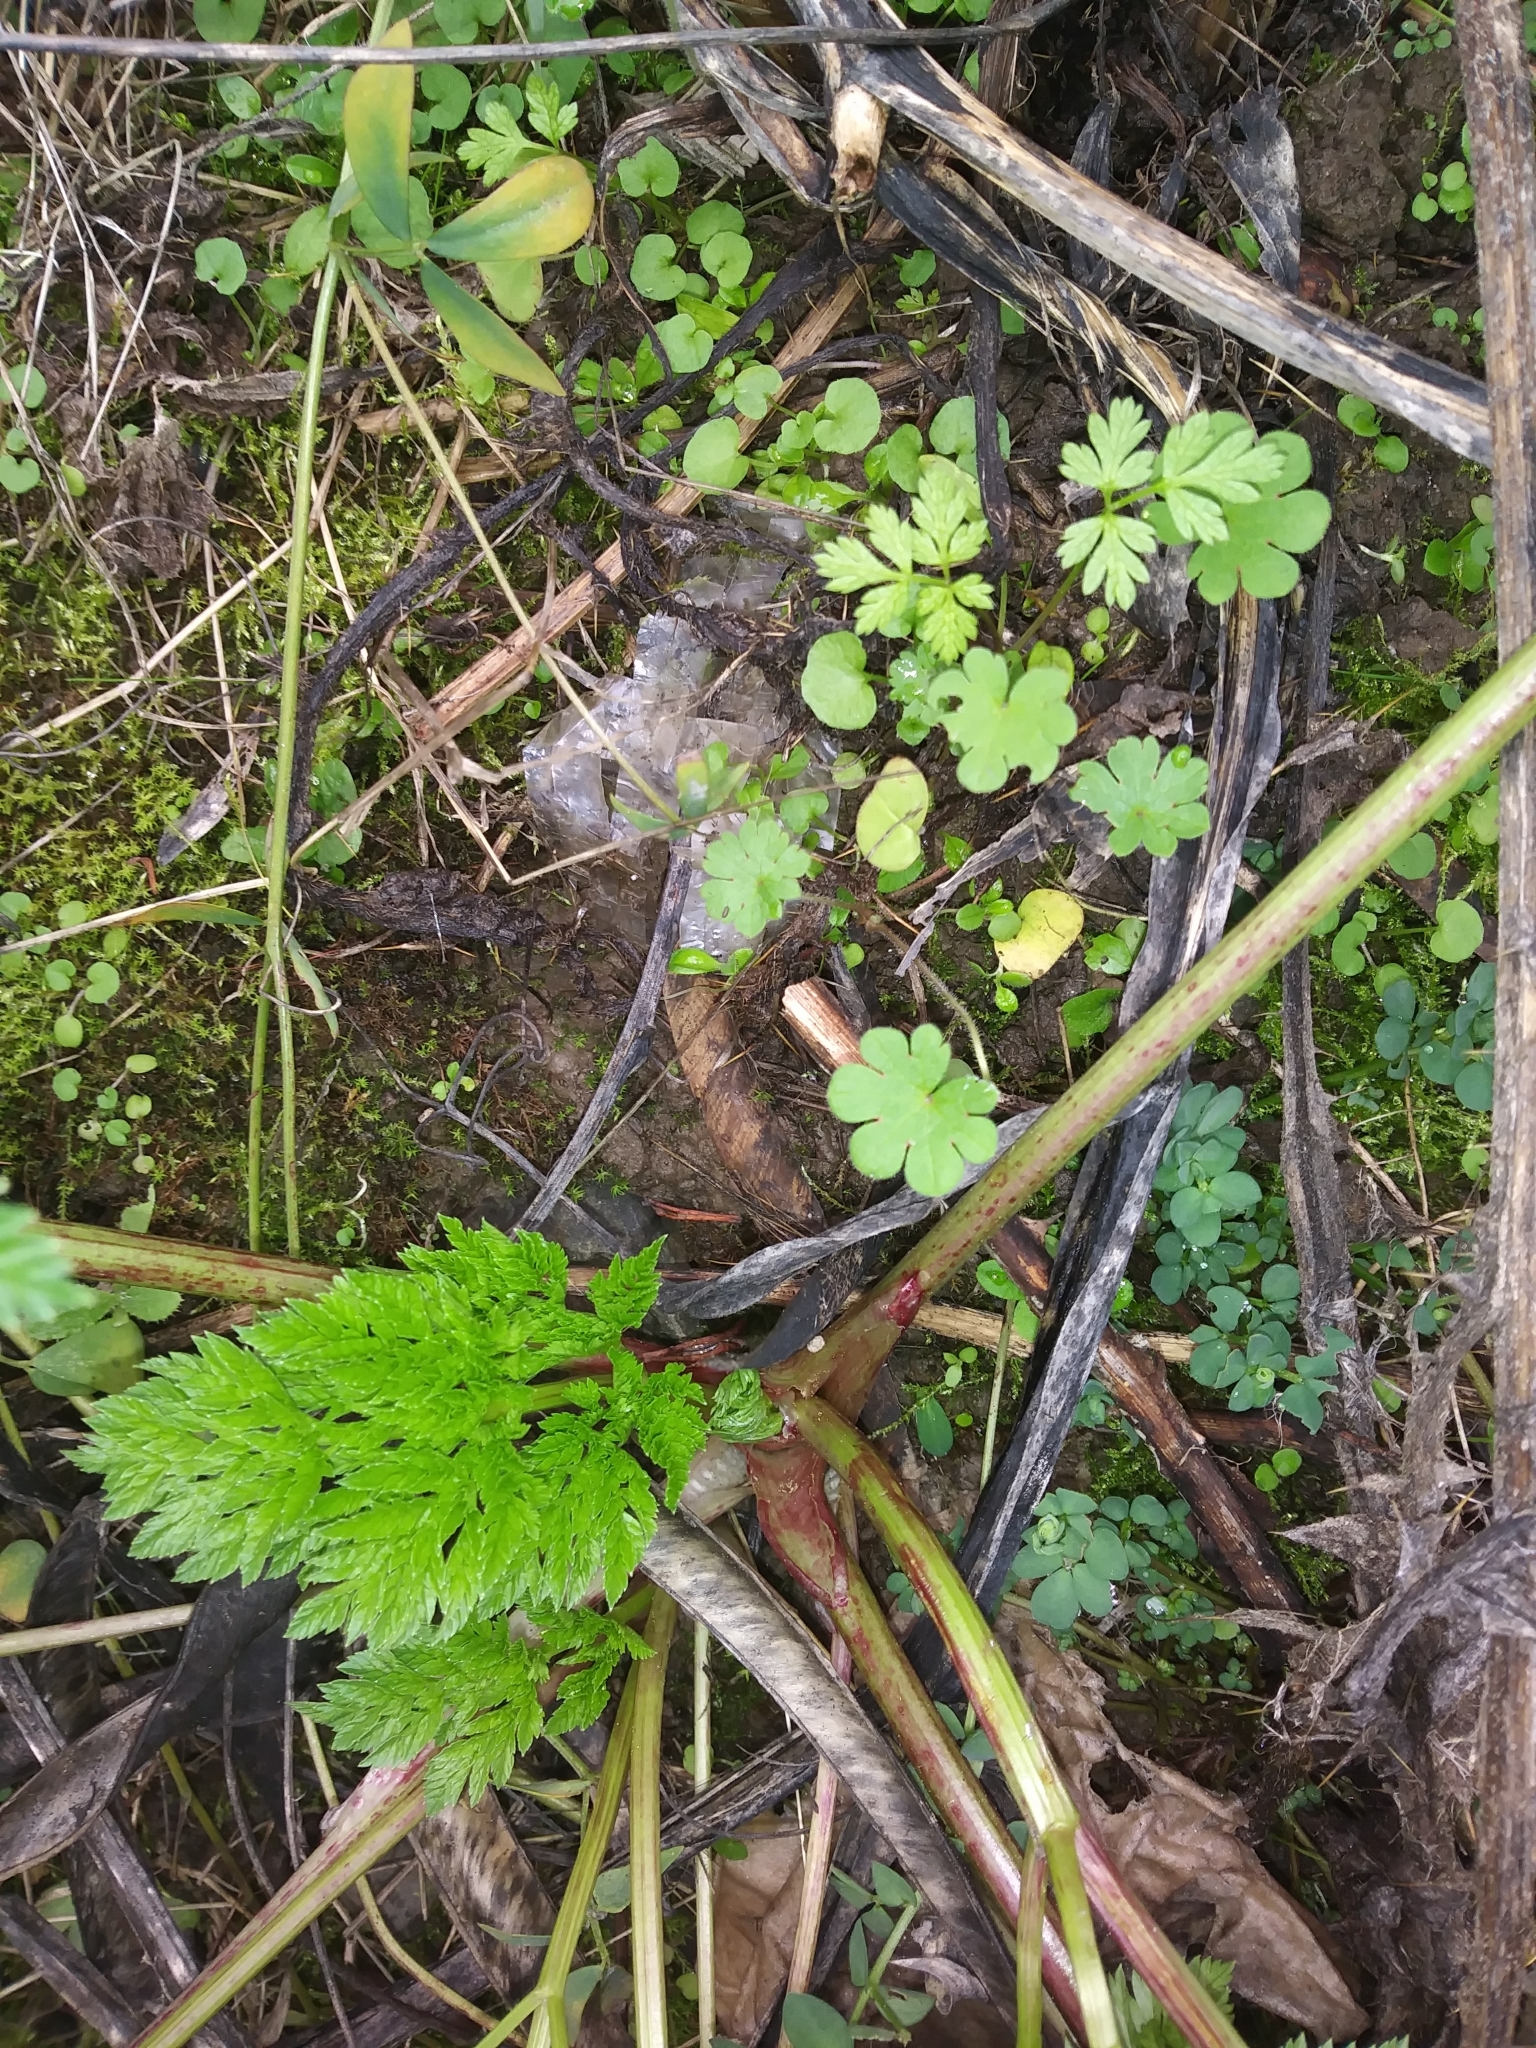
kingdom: Plantae
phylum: Tracheophyta
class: Magnoliopsida
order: Apiales
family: Apiaceae
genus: Conium
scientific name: Conium maculatum
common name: Hemlock
